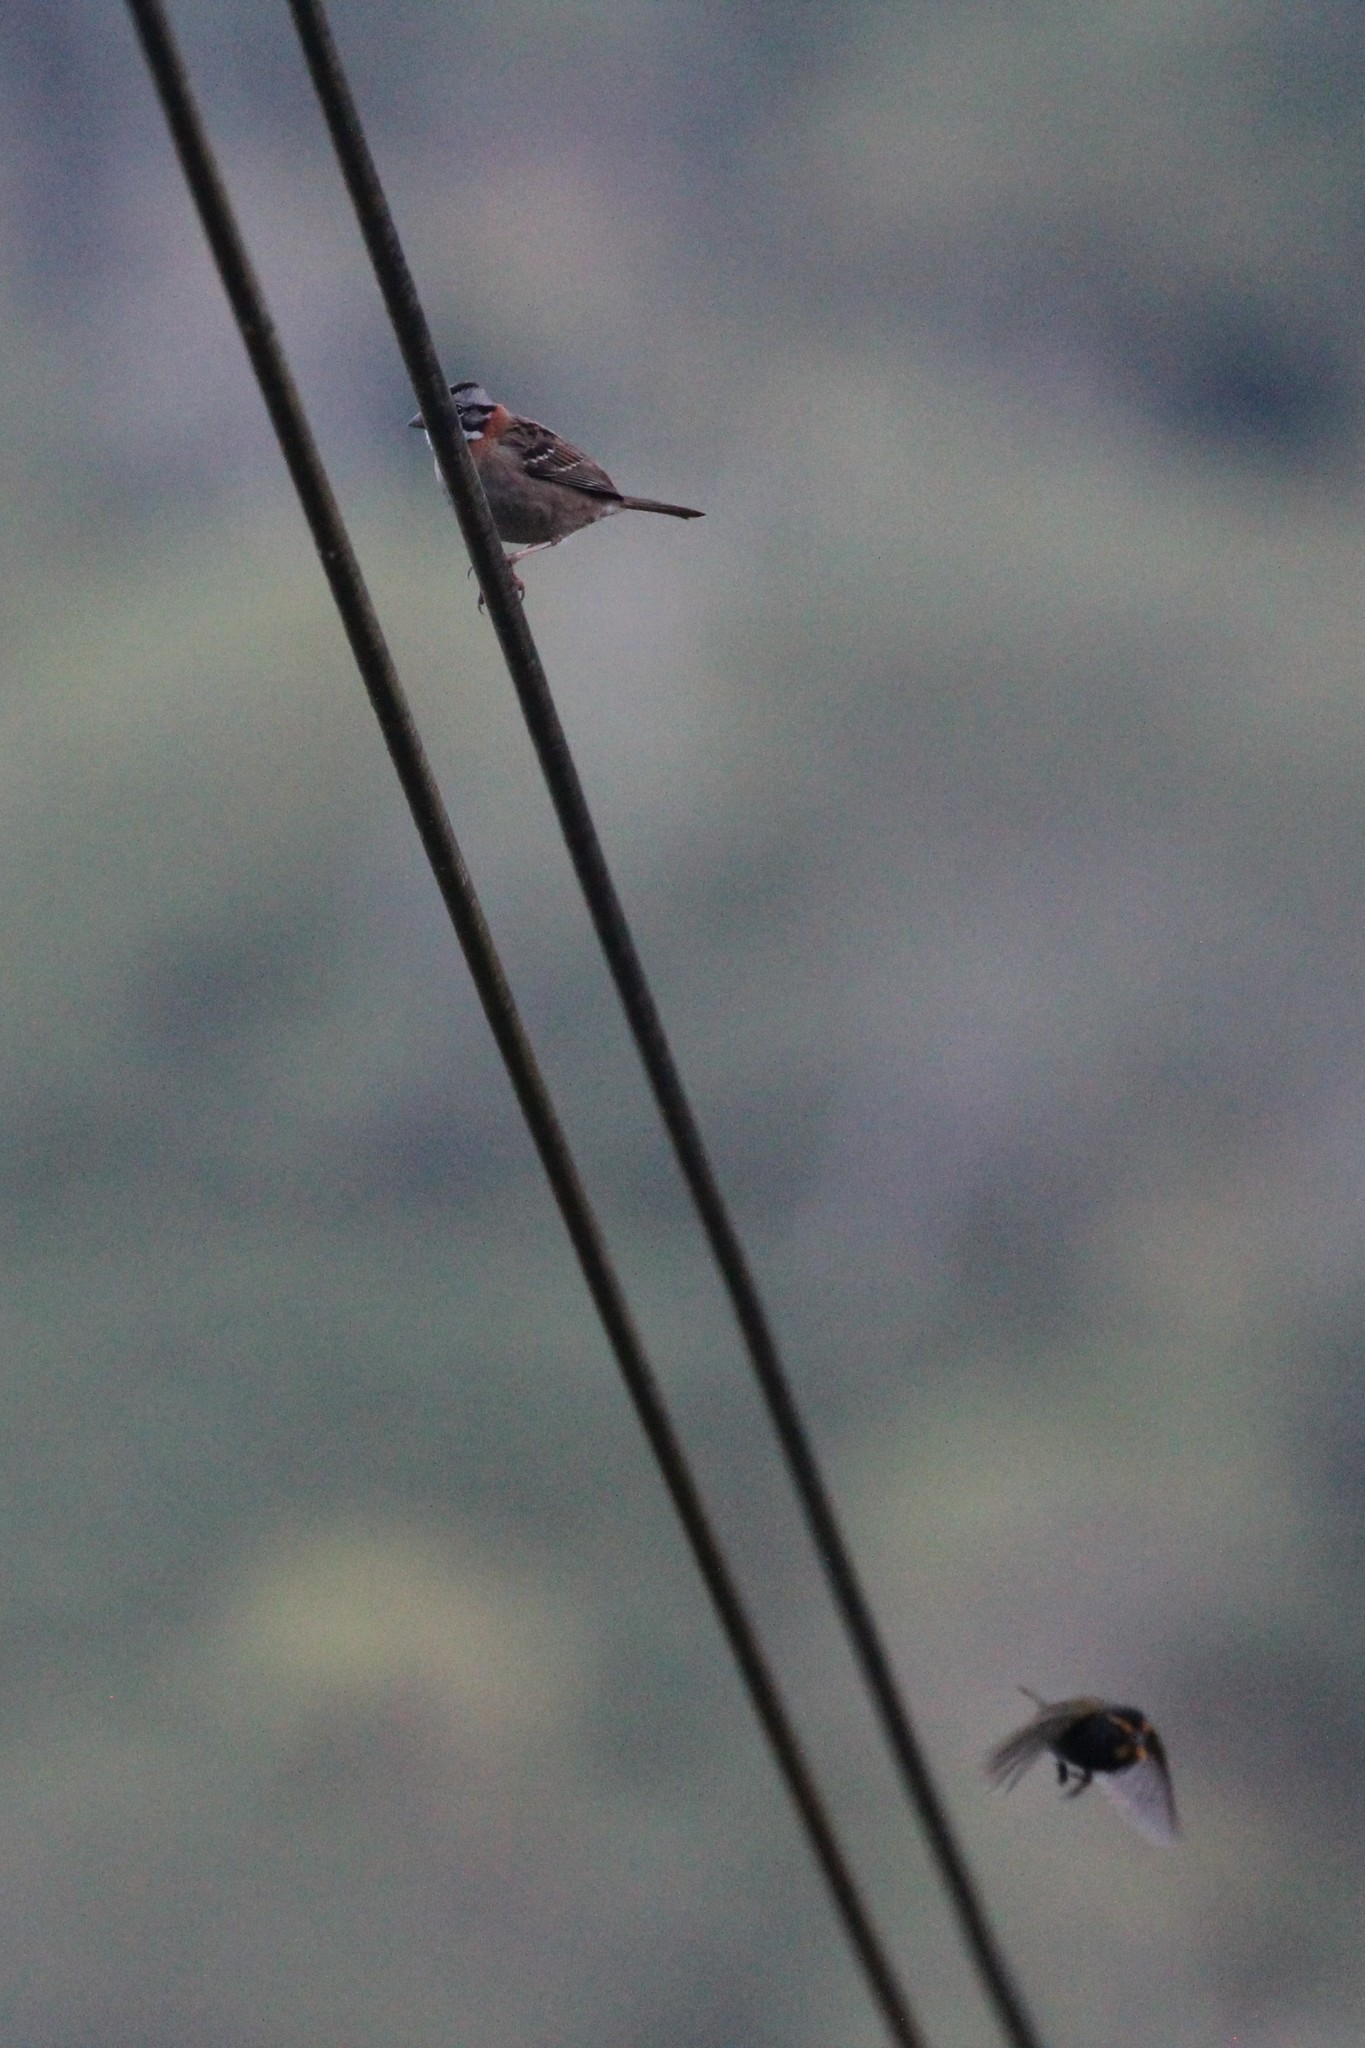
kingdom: Animalia
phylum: Chordata
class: Aves
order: Passeriformes
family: Thraupidae
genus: Tiaris
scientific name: Tiaris olivaceus
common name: Yellow-faced grassquit
